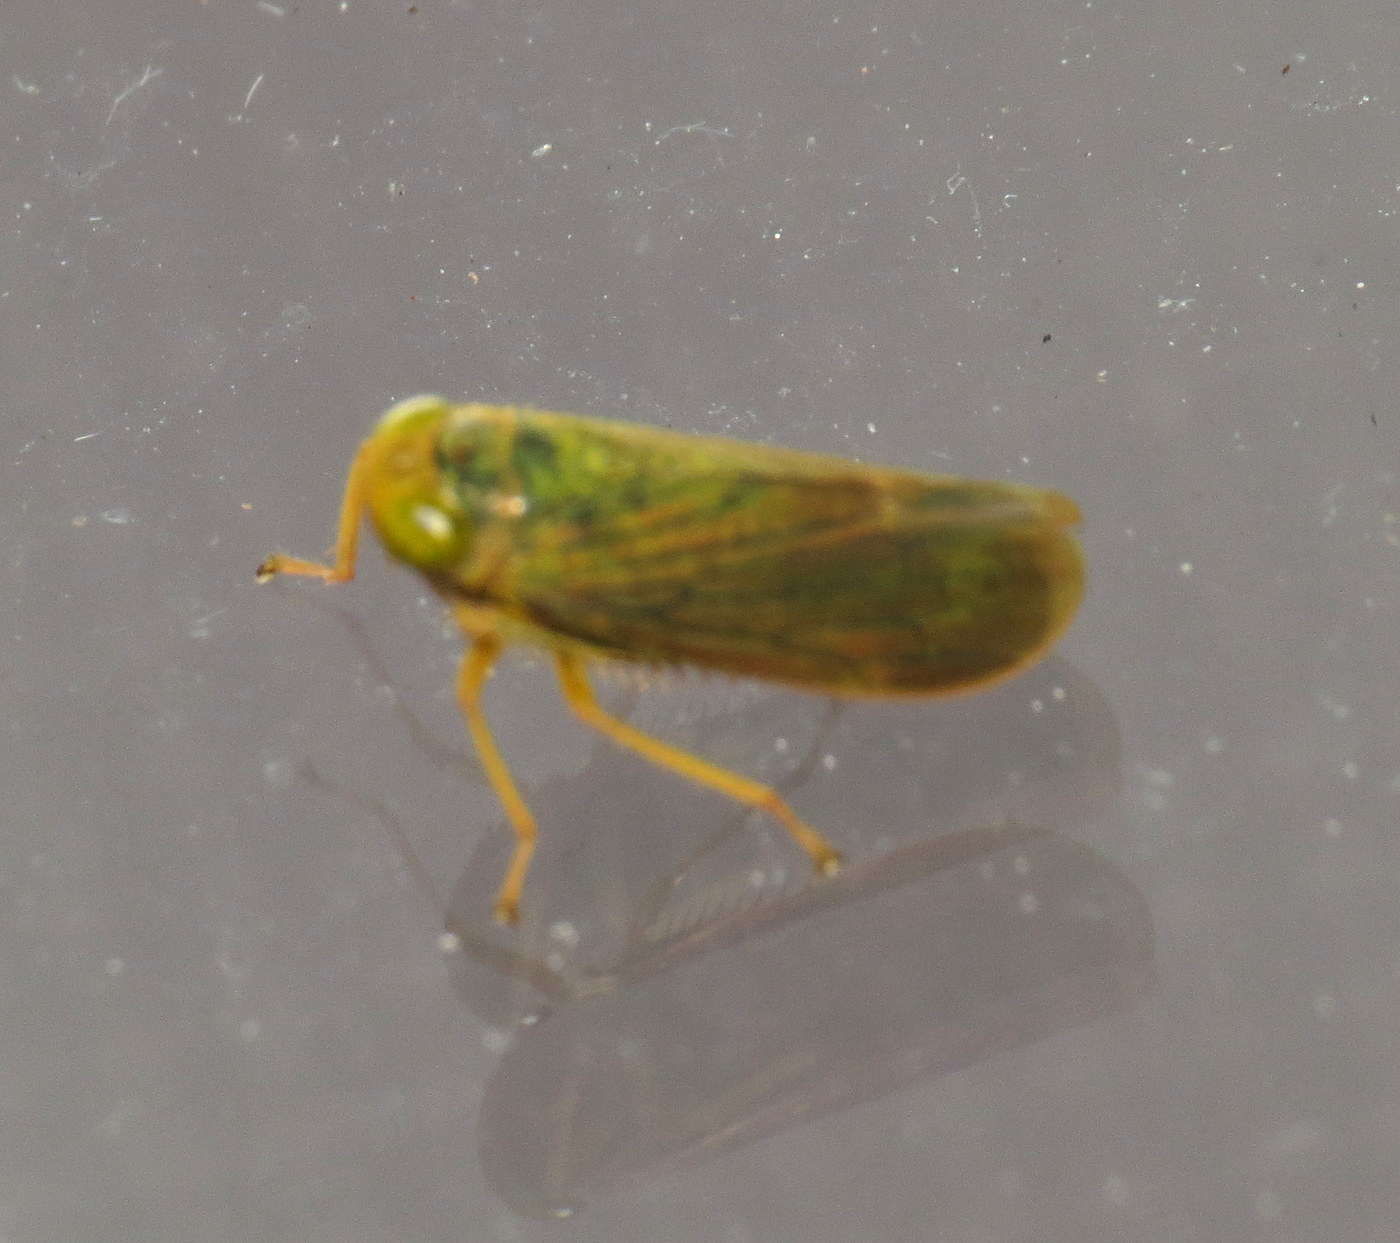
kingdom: Animalia
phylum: Arthropoda
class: Insecta
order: Hemiptera
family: Cicadellidae
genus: Jikradia
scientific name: Jikradia olitoria
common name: Coppery leafhopper
